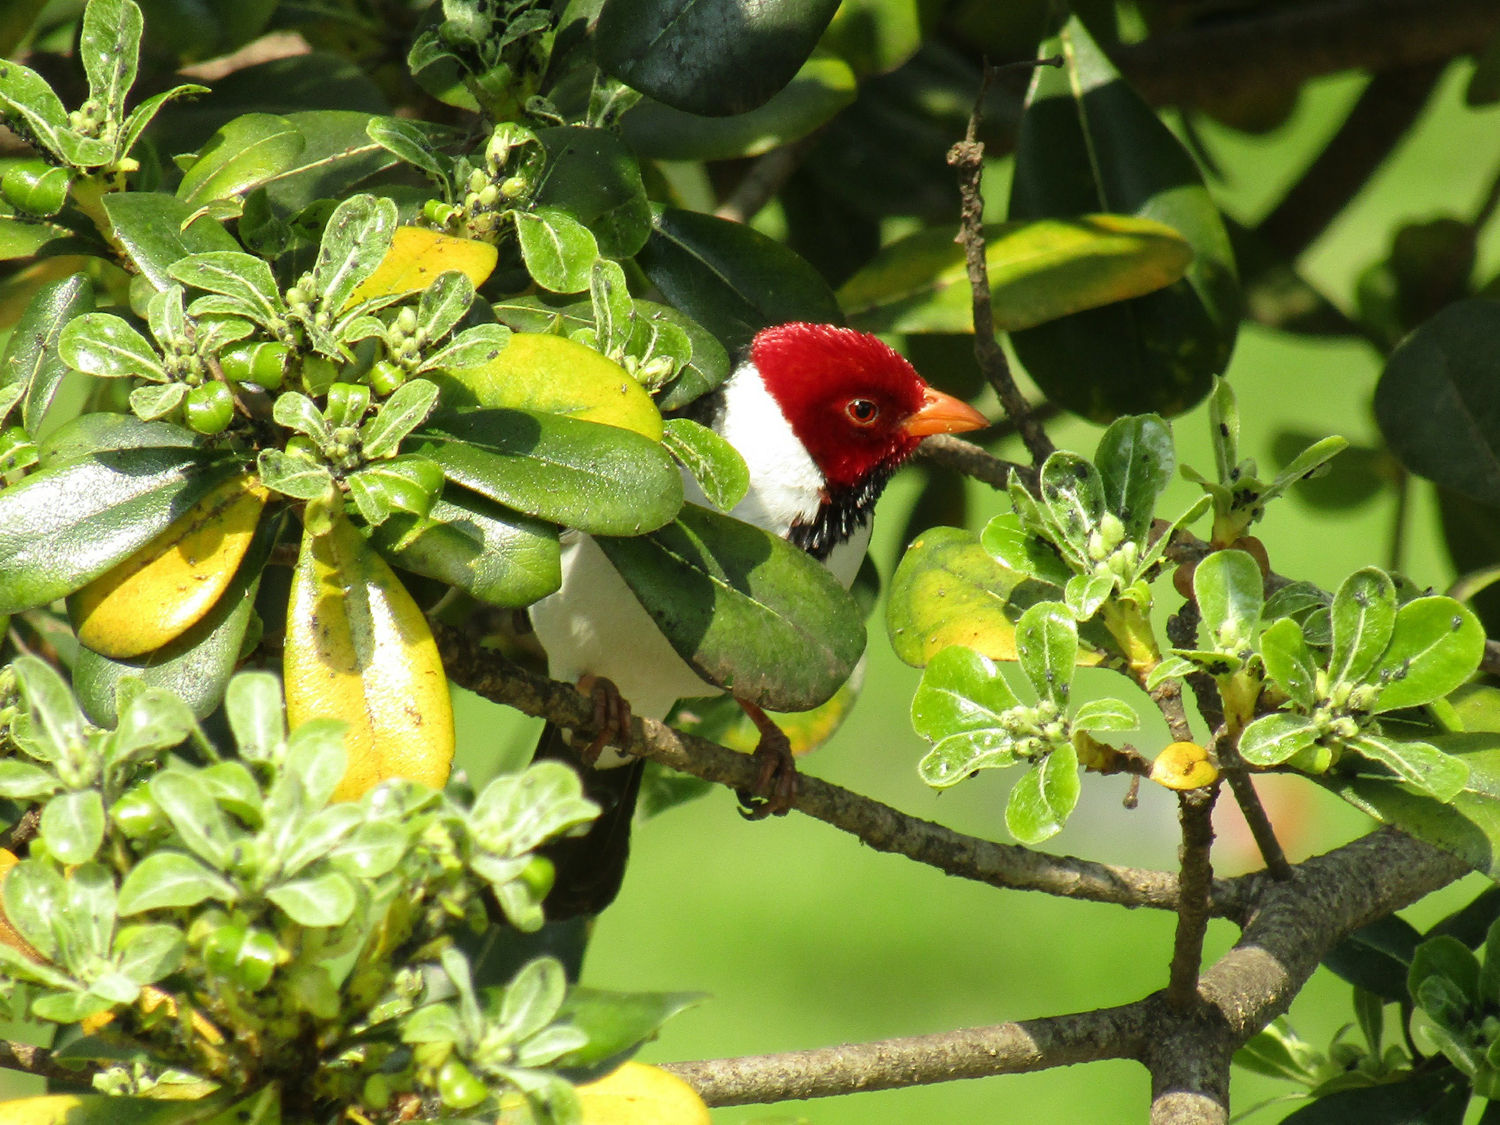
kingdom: Animalia
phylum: Chordata
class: Aves
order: Passeriformes
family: Thraupidae
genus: Paroaria
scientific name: Paroaria capitata
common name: Yellow-billed cardinal
